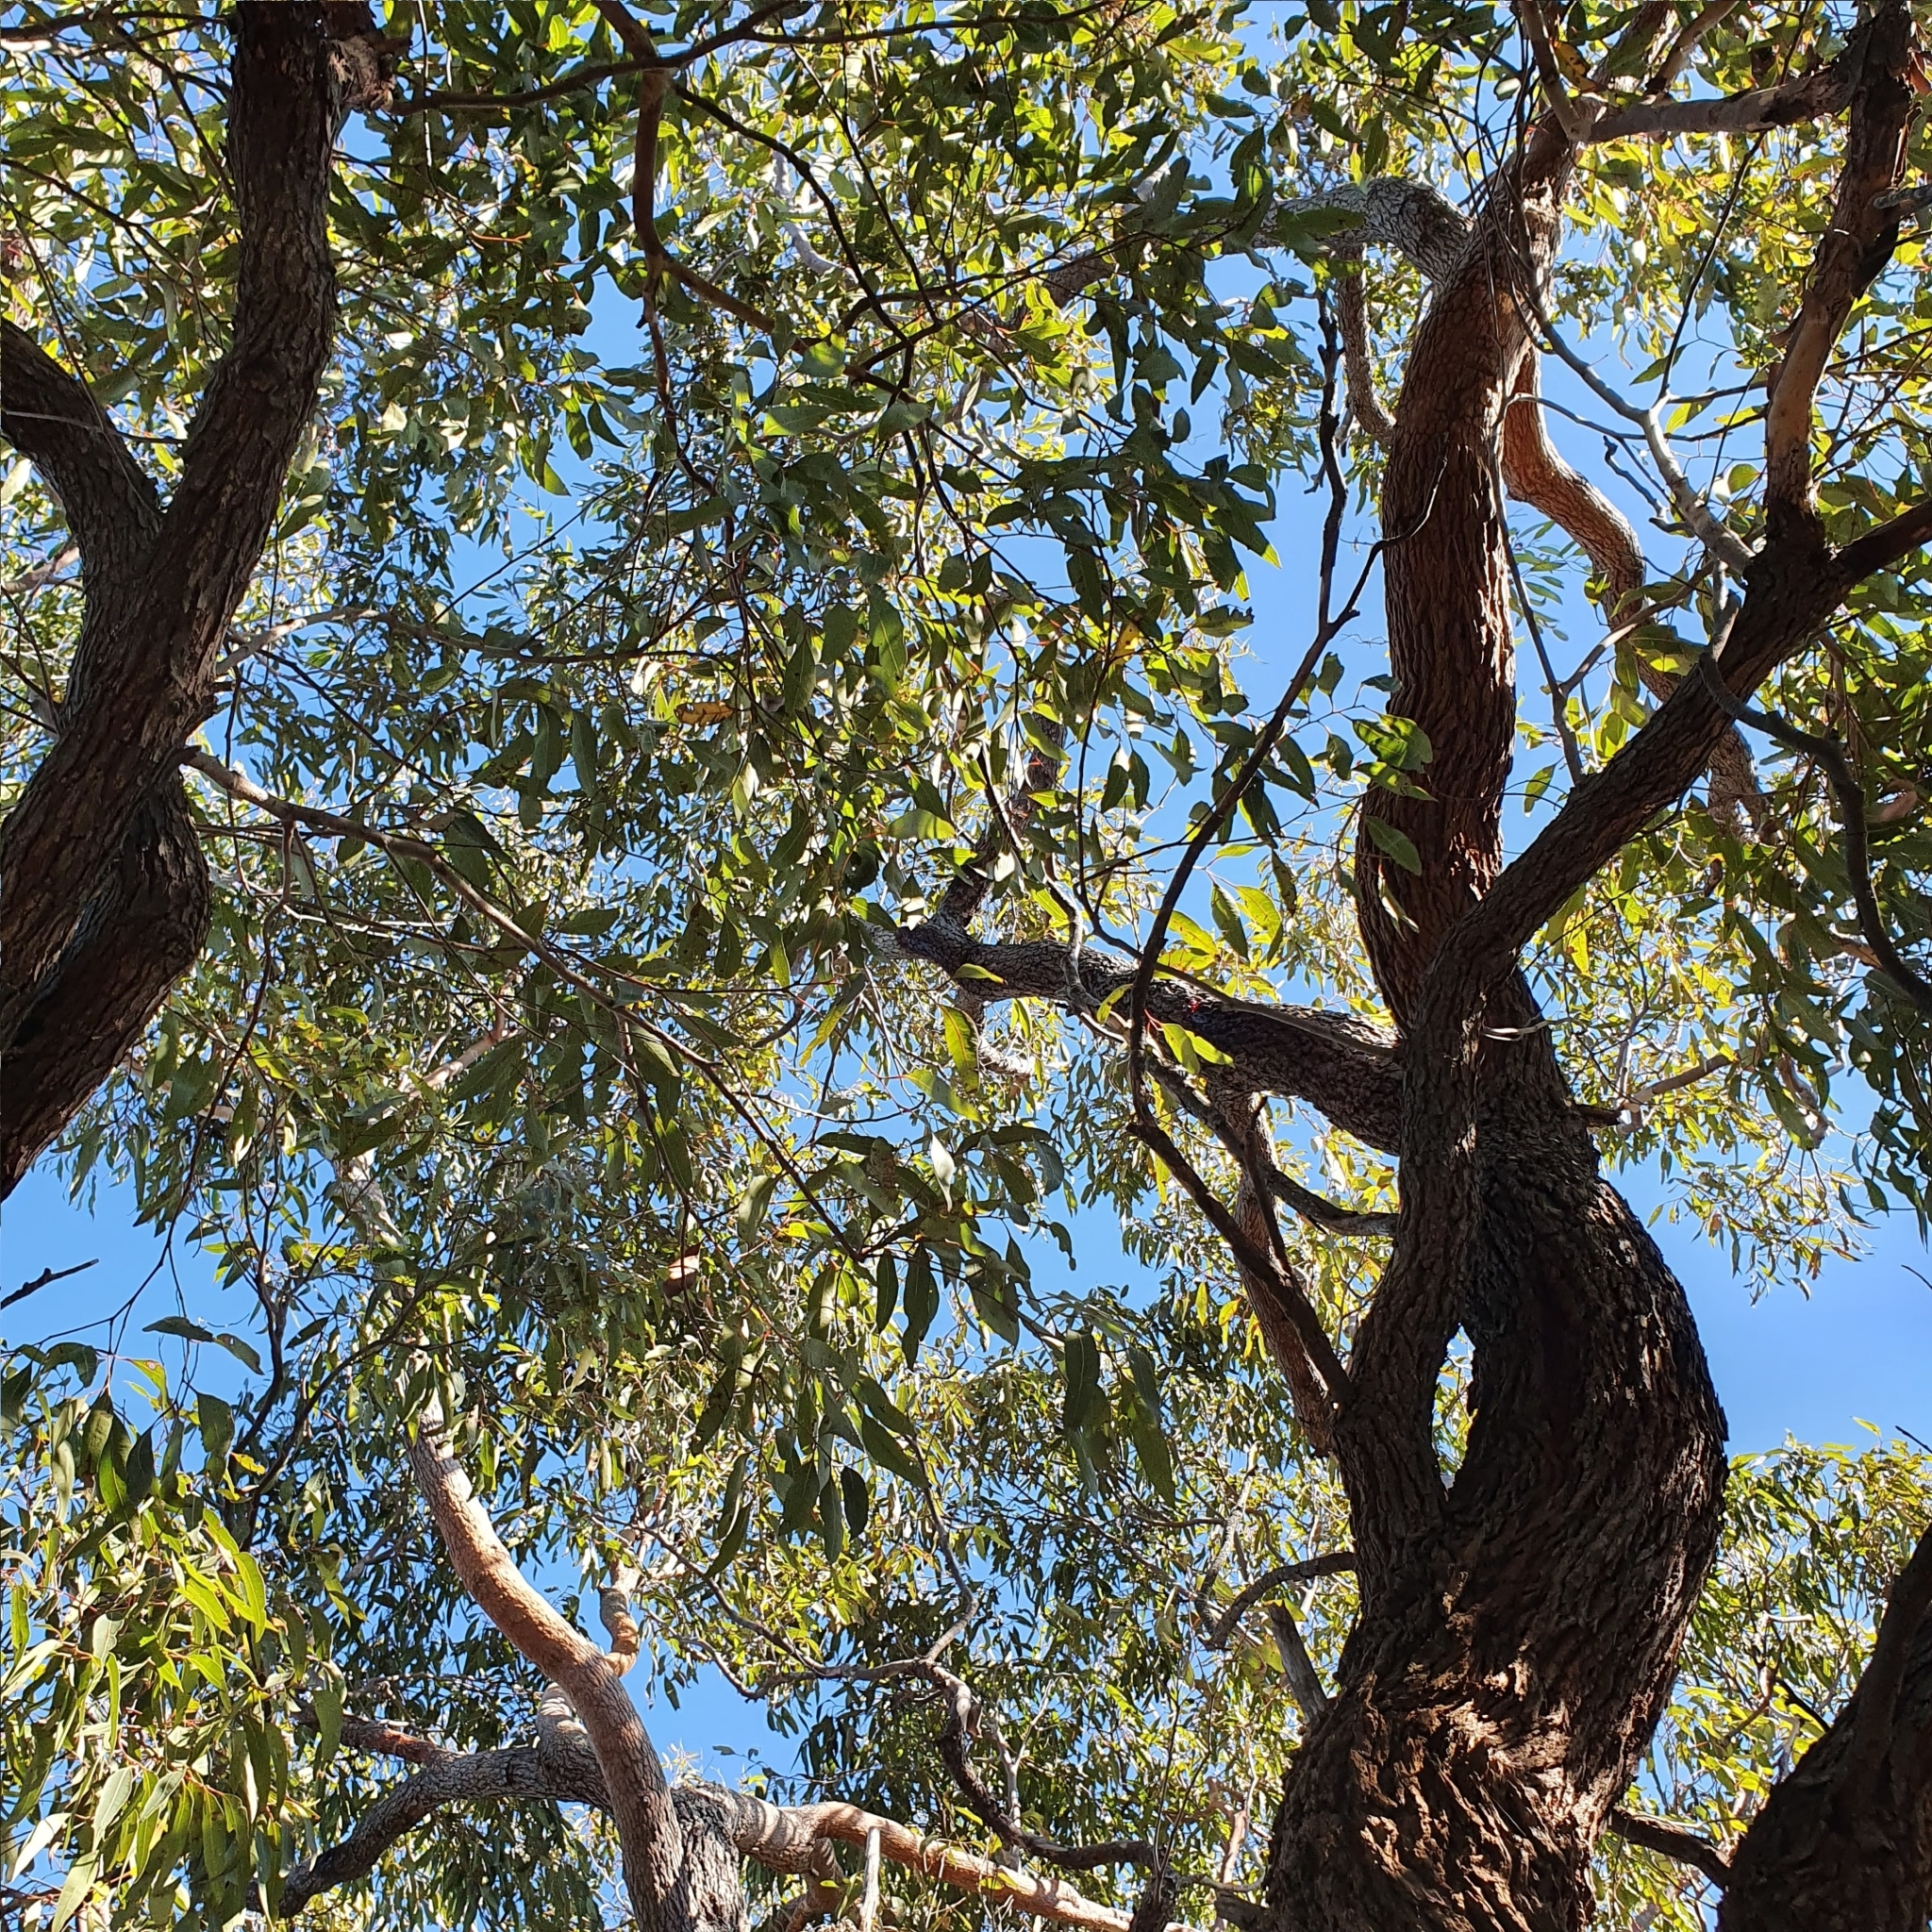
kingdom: Plantae
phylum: Tracheophyta
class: Magnoliopsida
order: Myrtales
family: Myrtaceae
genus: Corymbia
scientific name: Corymbia gummifera
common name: Red bloodwood
